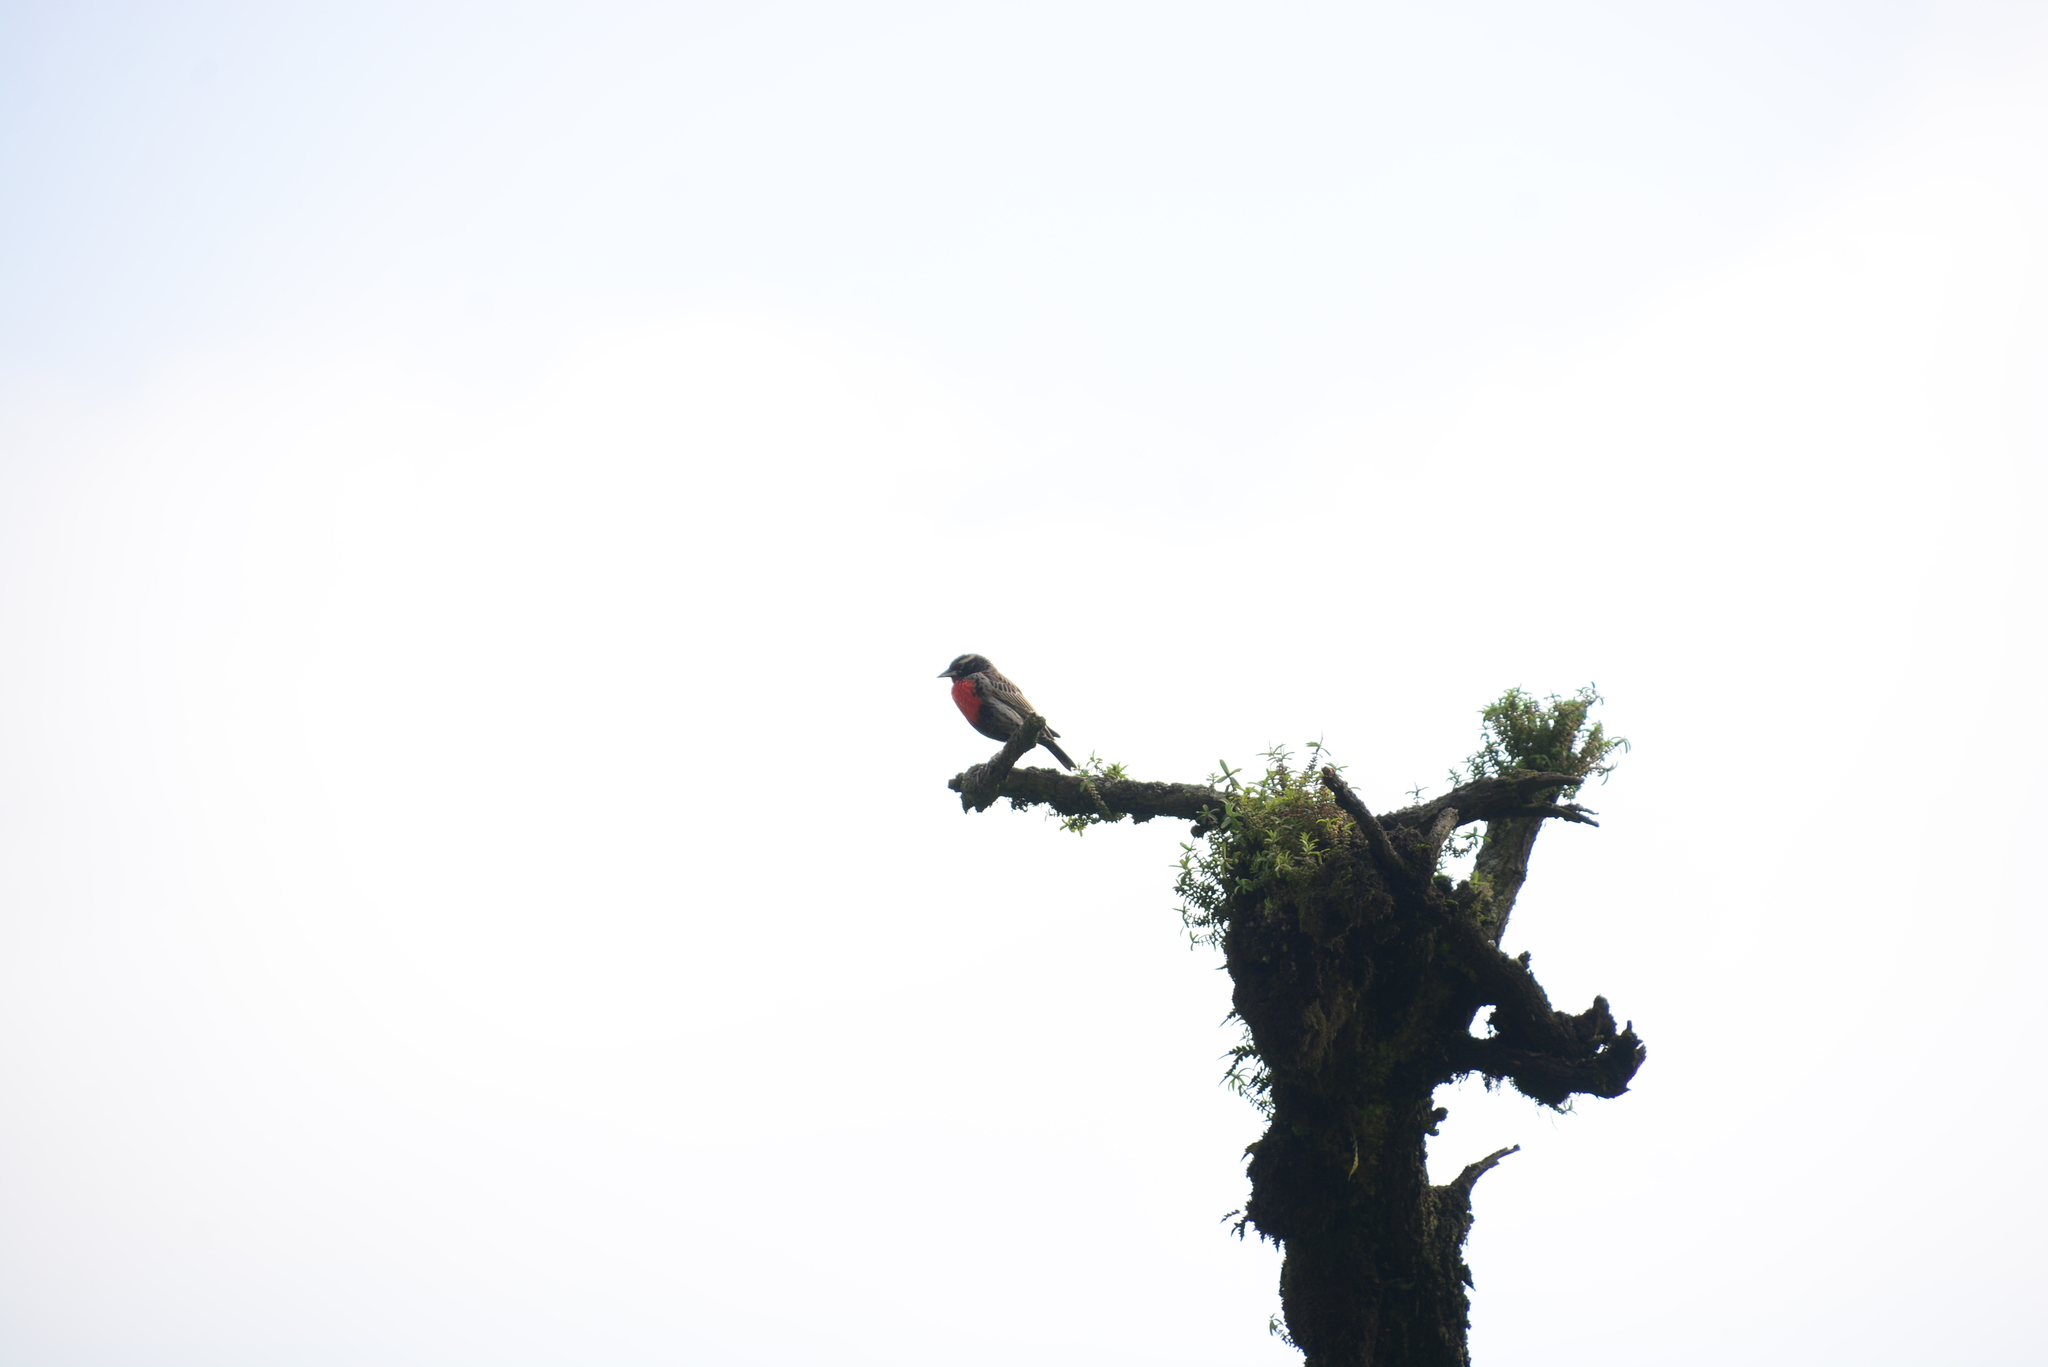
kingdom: Animalia
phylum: Chordata
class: Aves
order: Passeriformes
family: Icteridae
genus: Sturnella
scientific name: Sturnella bellicosa
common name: Peruvian meadowlark
